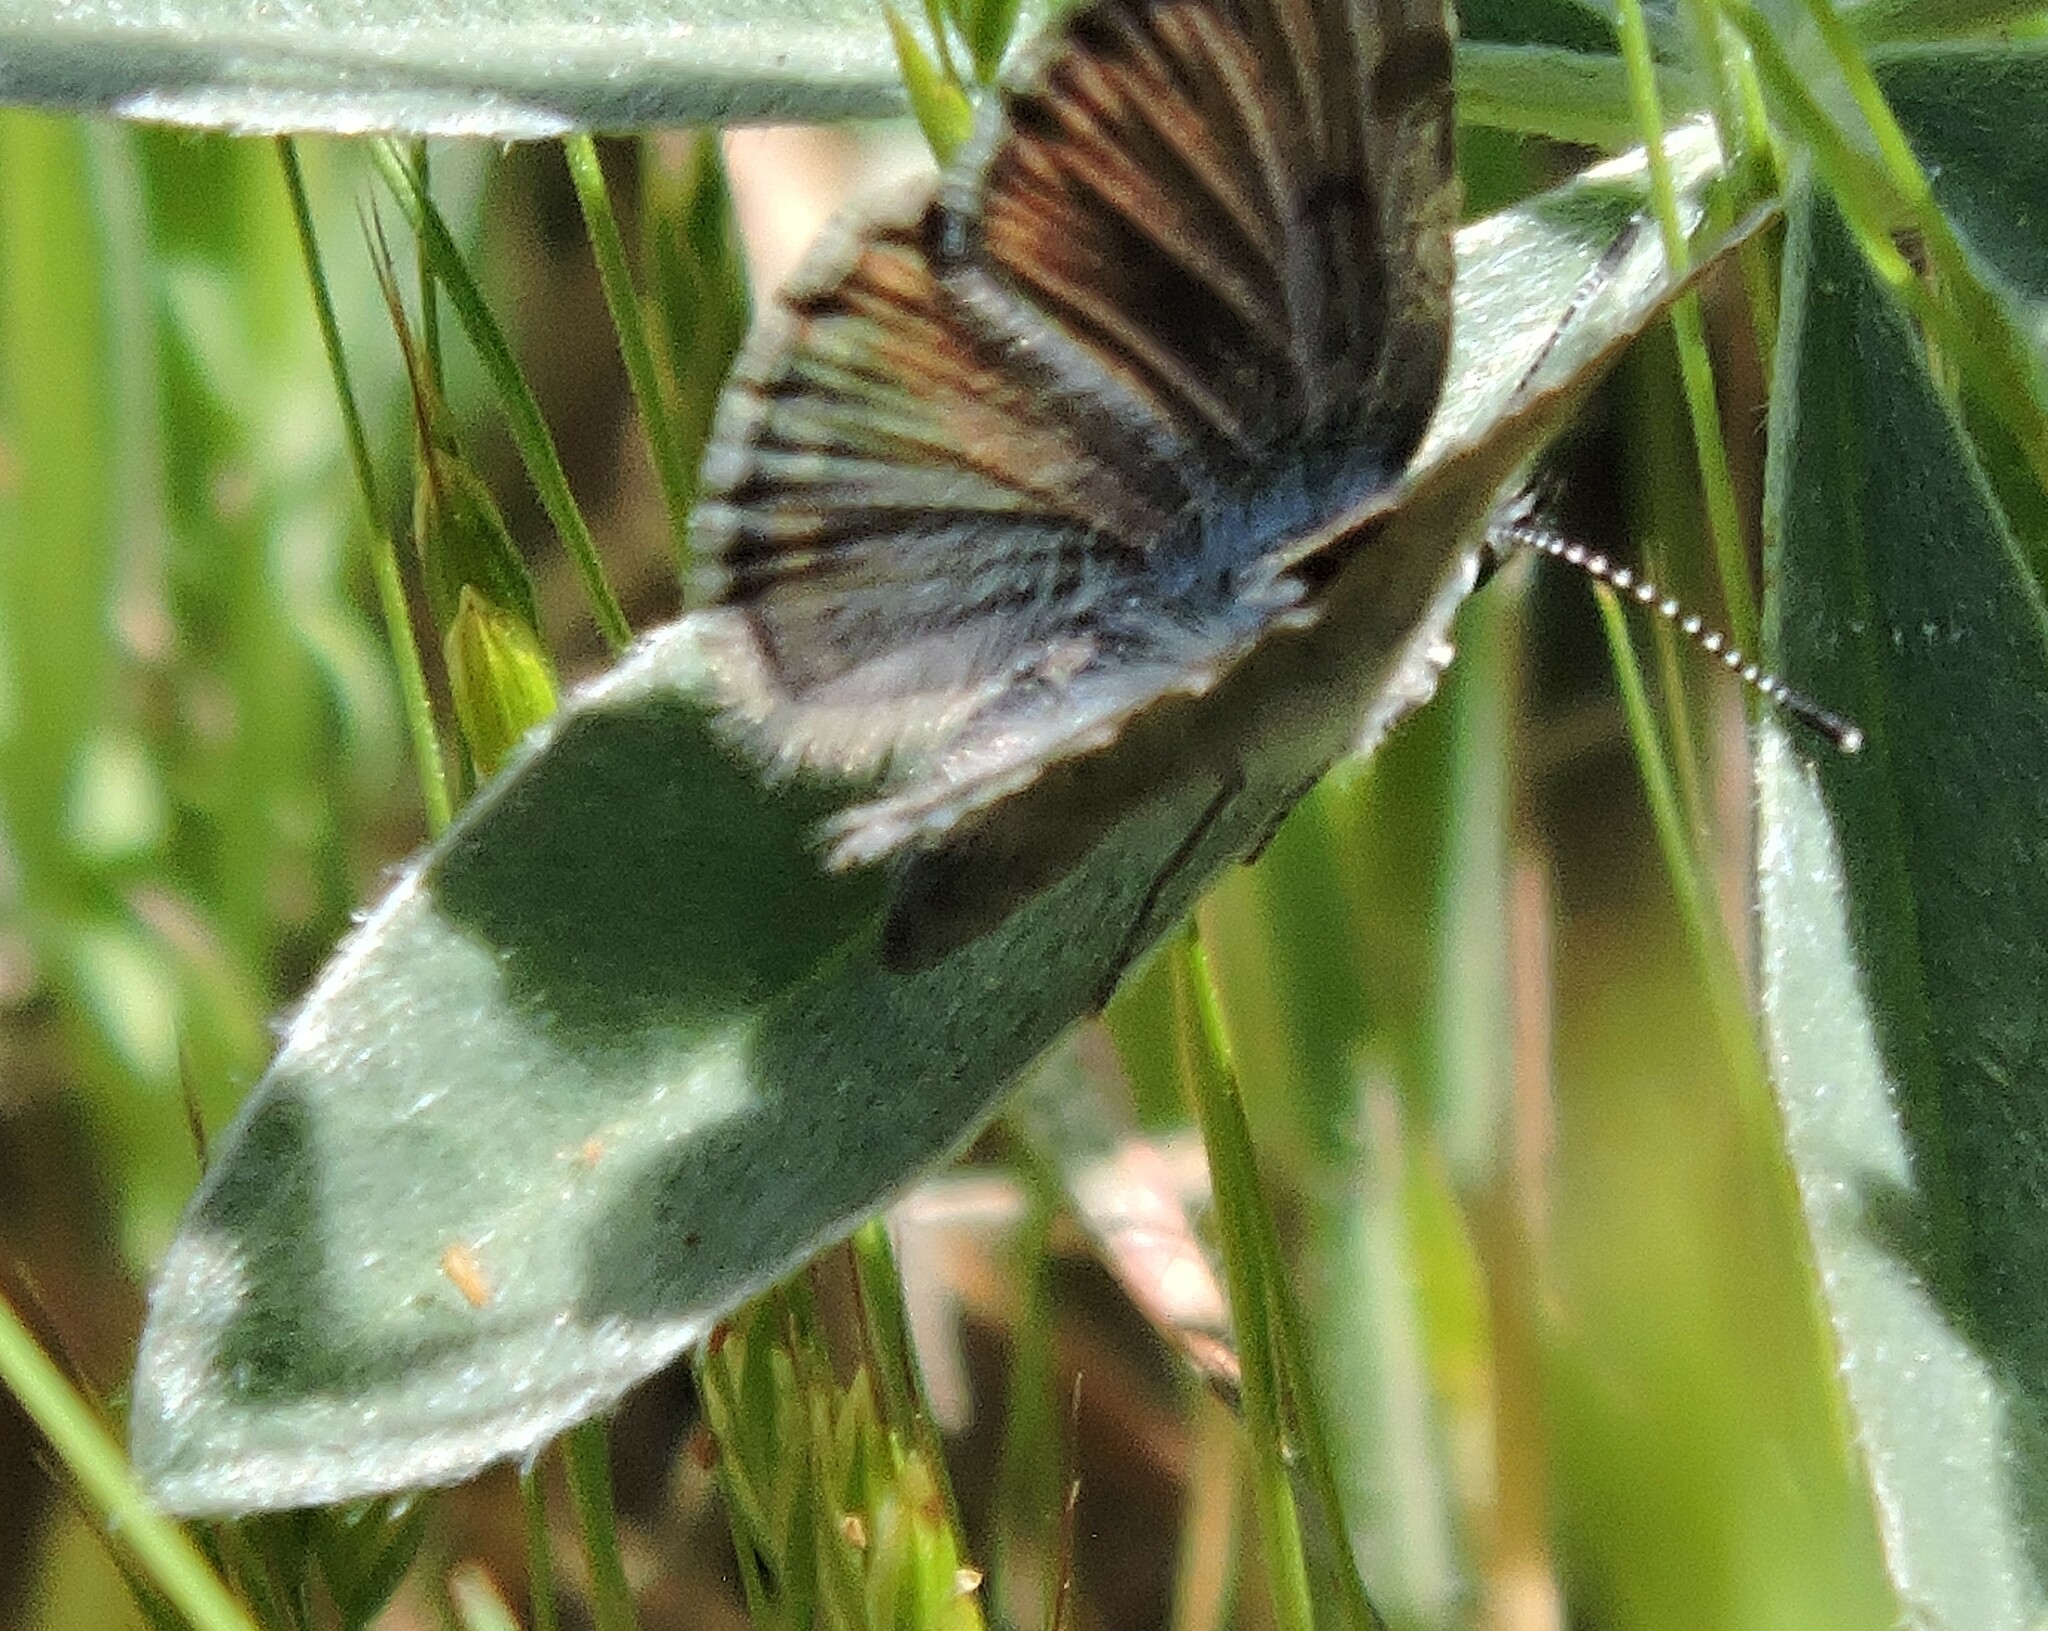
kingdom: Animalia
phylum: Arthropoda
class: Insecta
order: Lepidoptera
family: Lycaenidae
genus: Icaricia
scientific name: Icaricia icarioides
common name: Boisduval's blue
